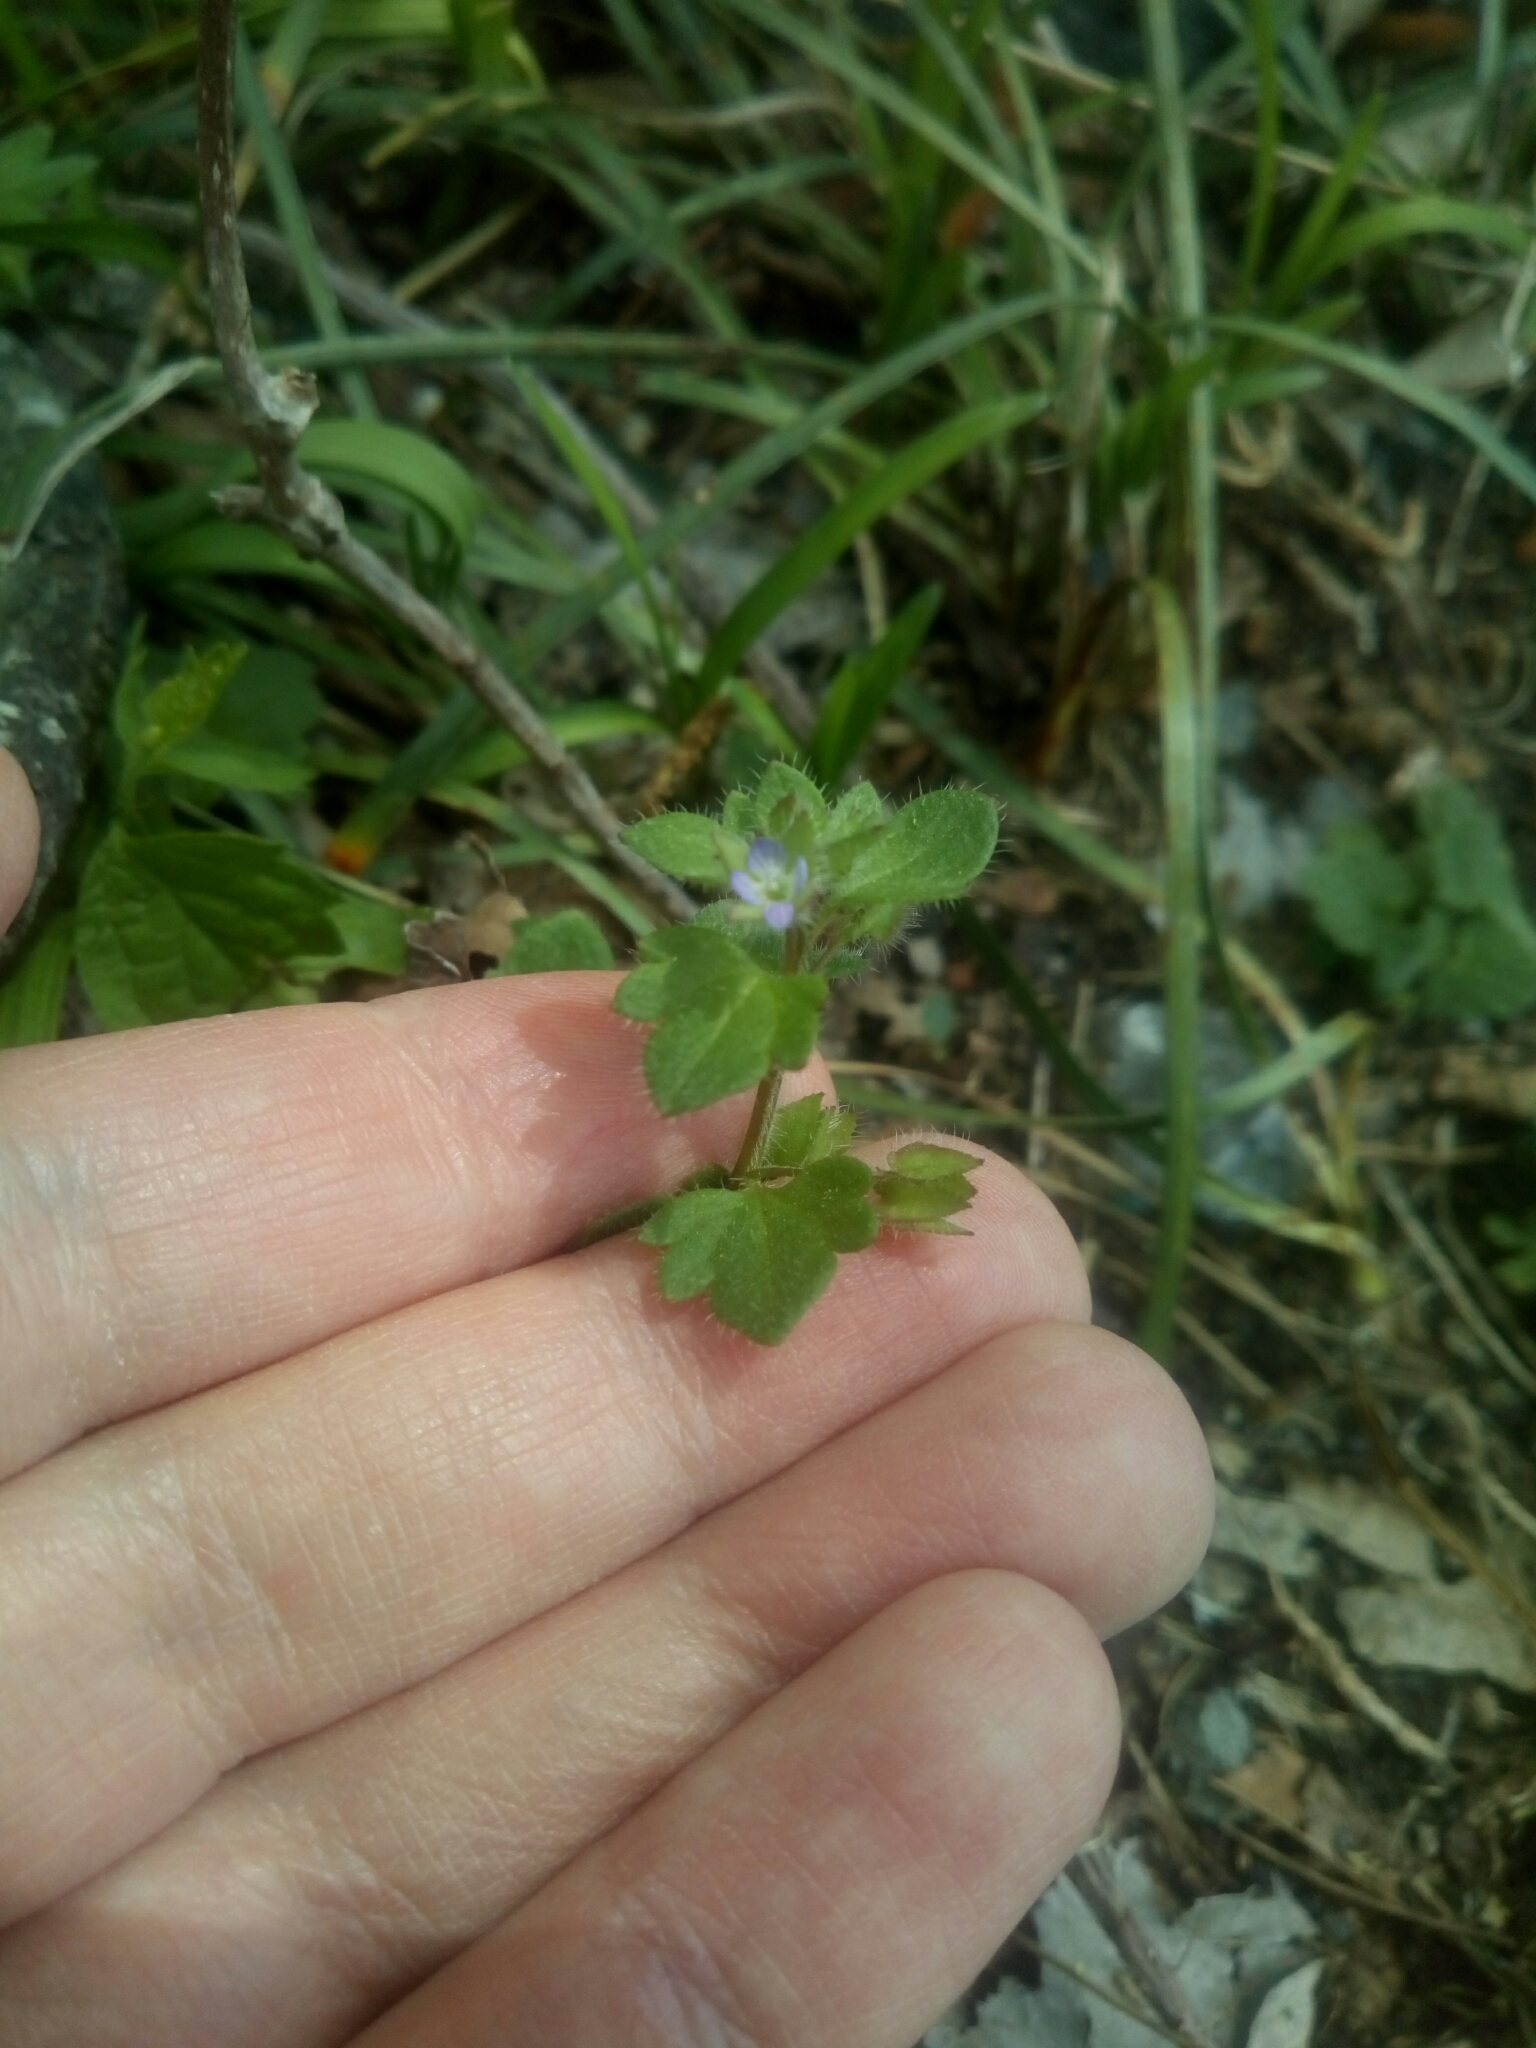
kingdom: Plantae
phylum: Tracheophyta
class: Magnoliopsida
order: Lamiales
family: Plantaginaceae
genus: Veronica
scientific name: Veronica hederifolia
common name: Ivy-leaved speedwell
